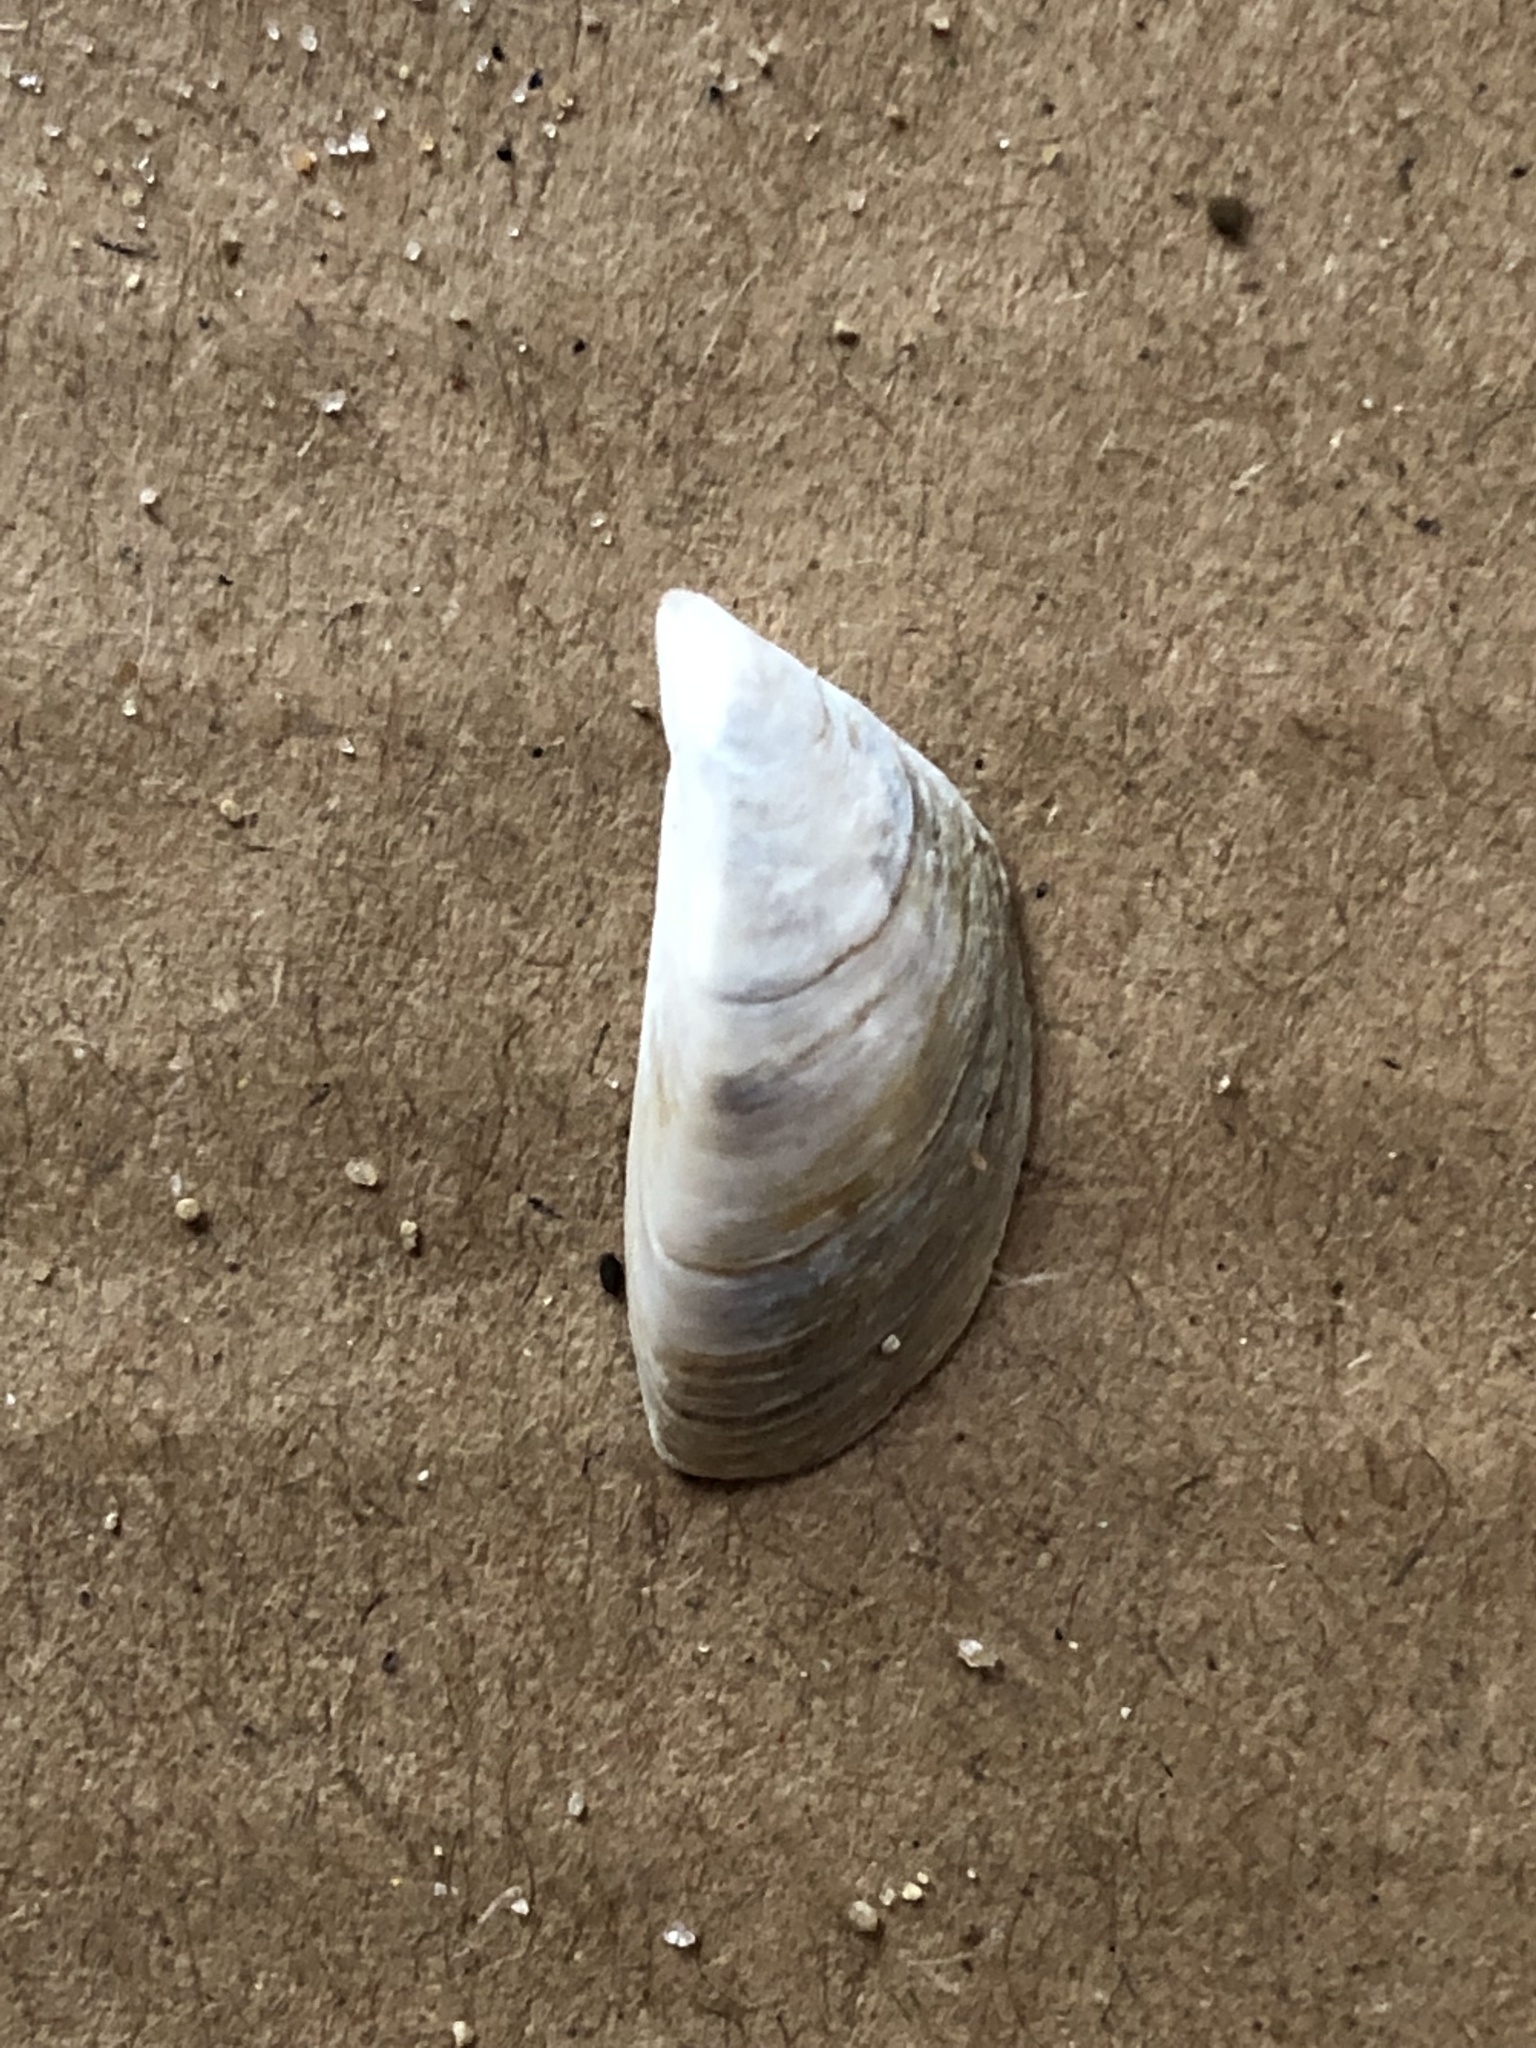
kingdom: Animalia
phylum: Mollusca
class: Bivalvia
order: Myida
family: Dreissenidae
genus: Dreissena
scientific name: Dreissena polymorpha
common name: Zebra mussel
